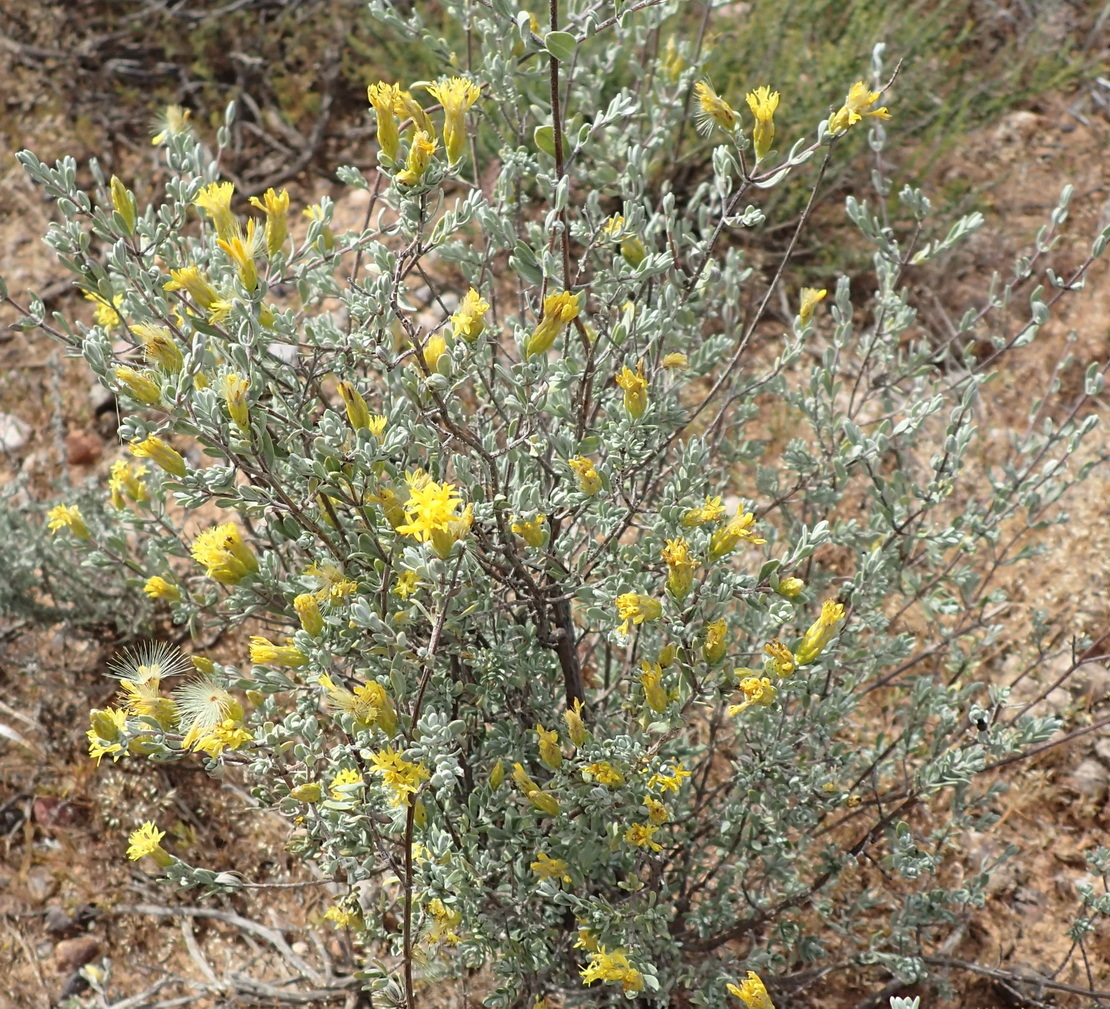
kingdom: Plantae
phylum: Tracheophyta
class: Magnoliopsida
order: Asterales
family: Asteraceae
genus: Pteronia
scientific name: Pteronia incana
